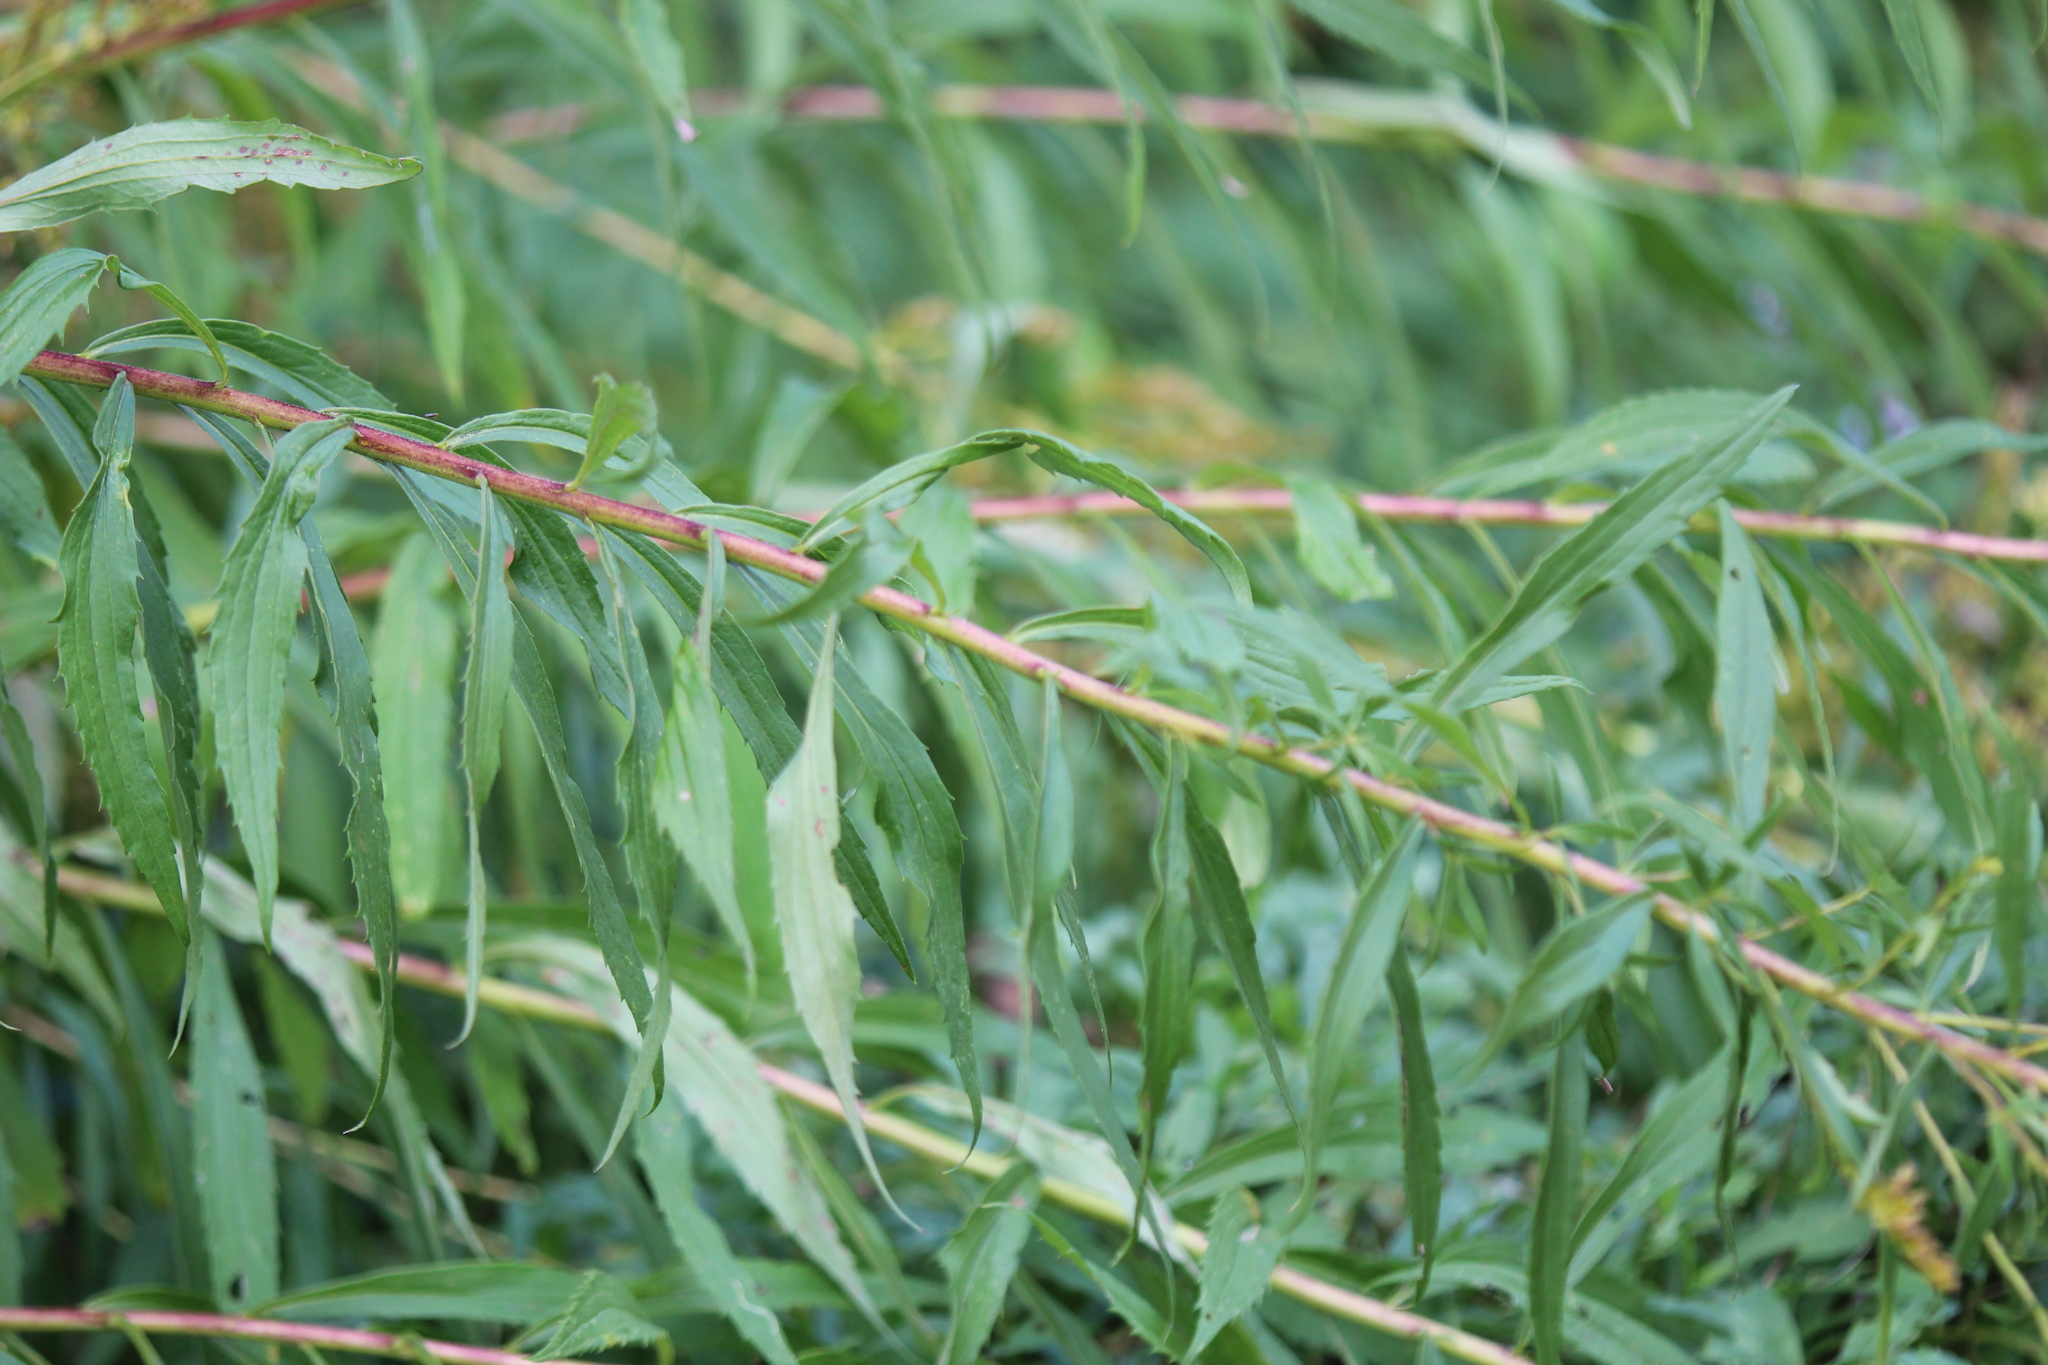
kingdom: Plantae
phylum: Tracheophyta
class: Magnoliopsida
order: Asterales
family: Asteraceae
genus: Solidago
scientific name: Solidago altissima
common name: Late goldenrod
